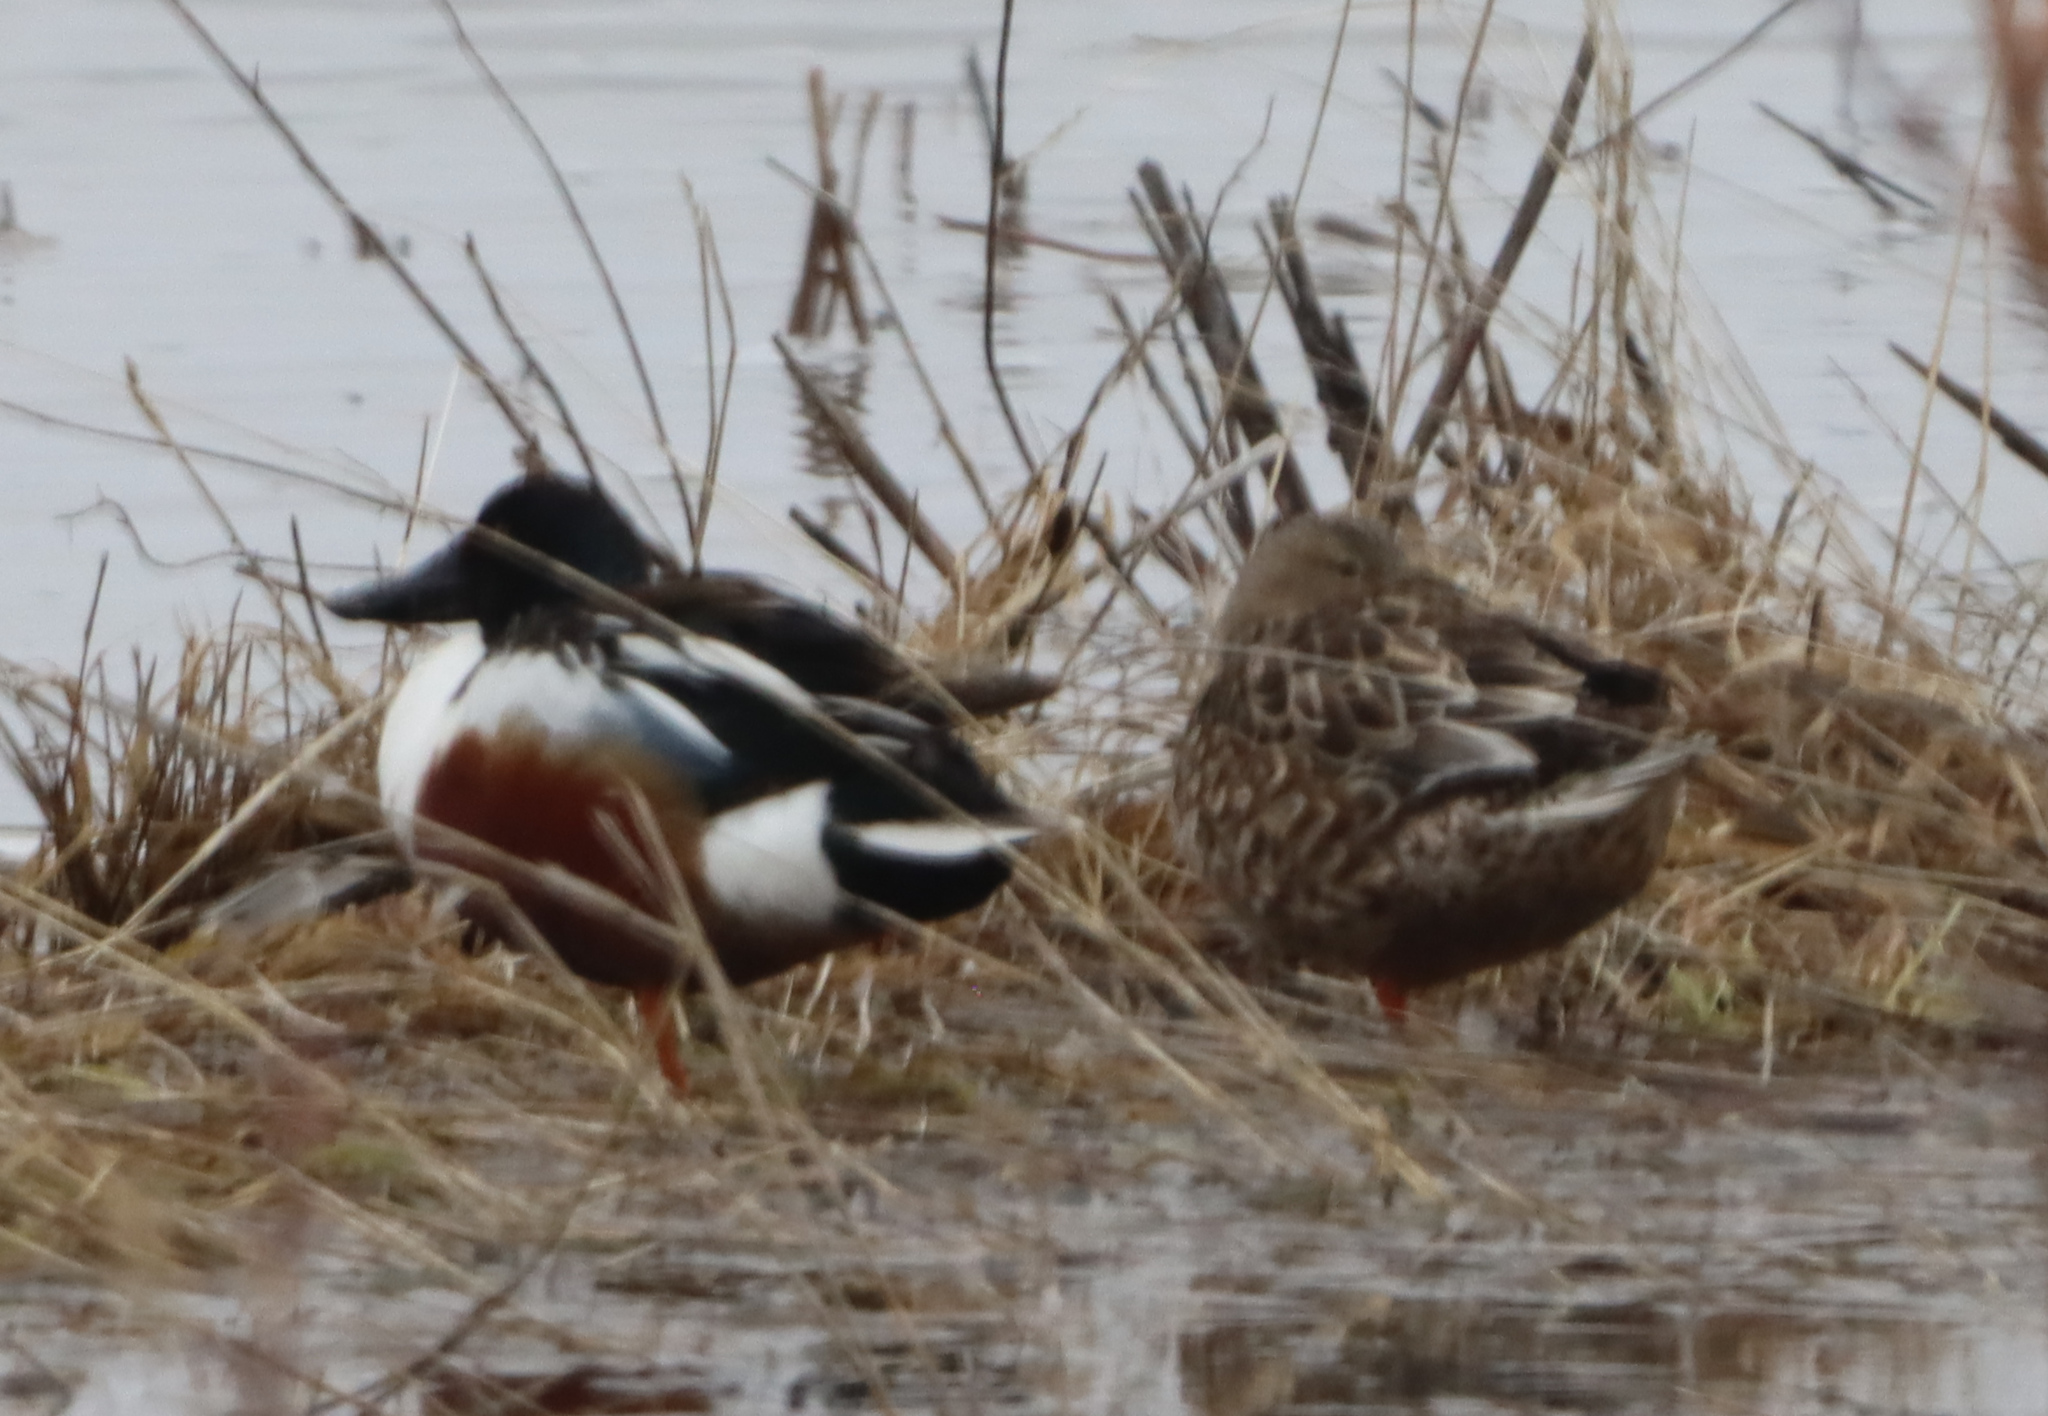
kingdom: Animalia
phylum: Chordata
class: Aves
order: Anseriformes
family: Anatidae
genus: Spatula
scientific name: Spatula clypeata
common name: Northern shoveler
